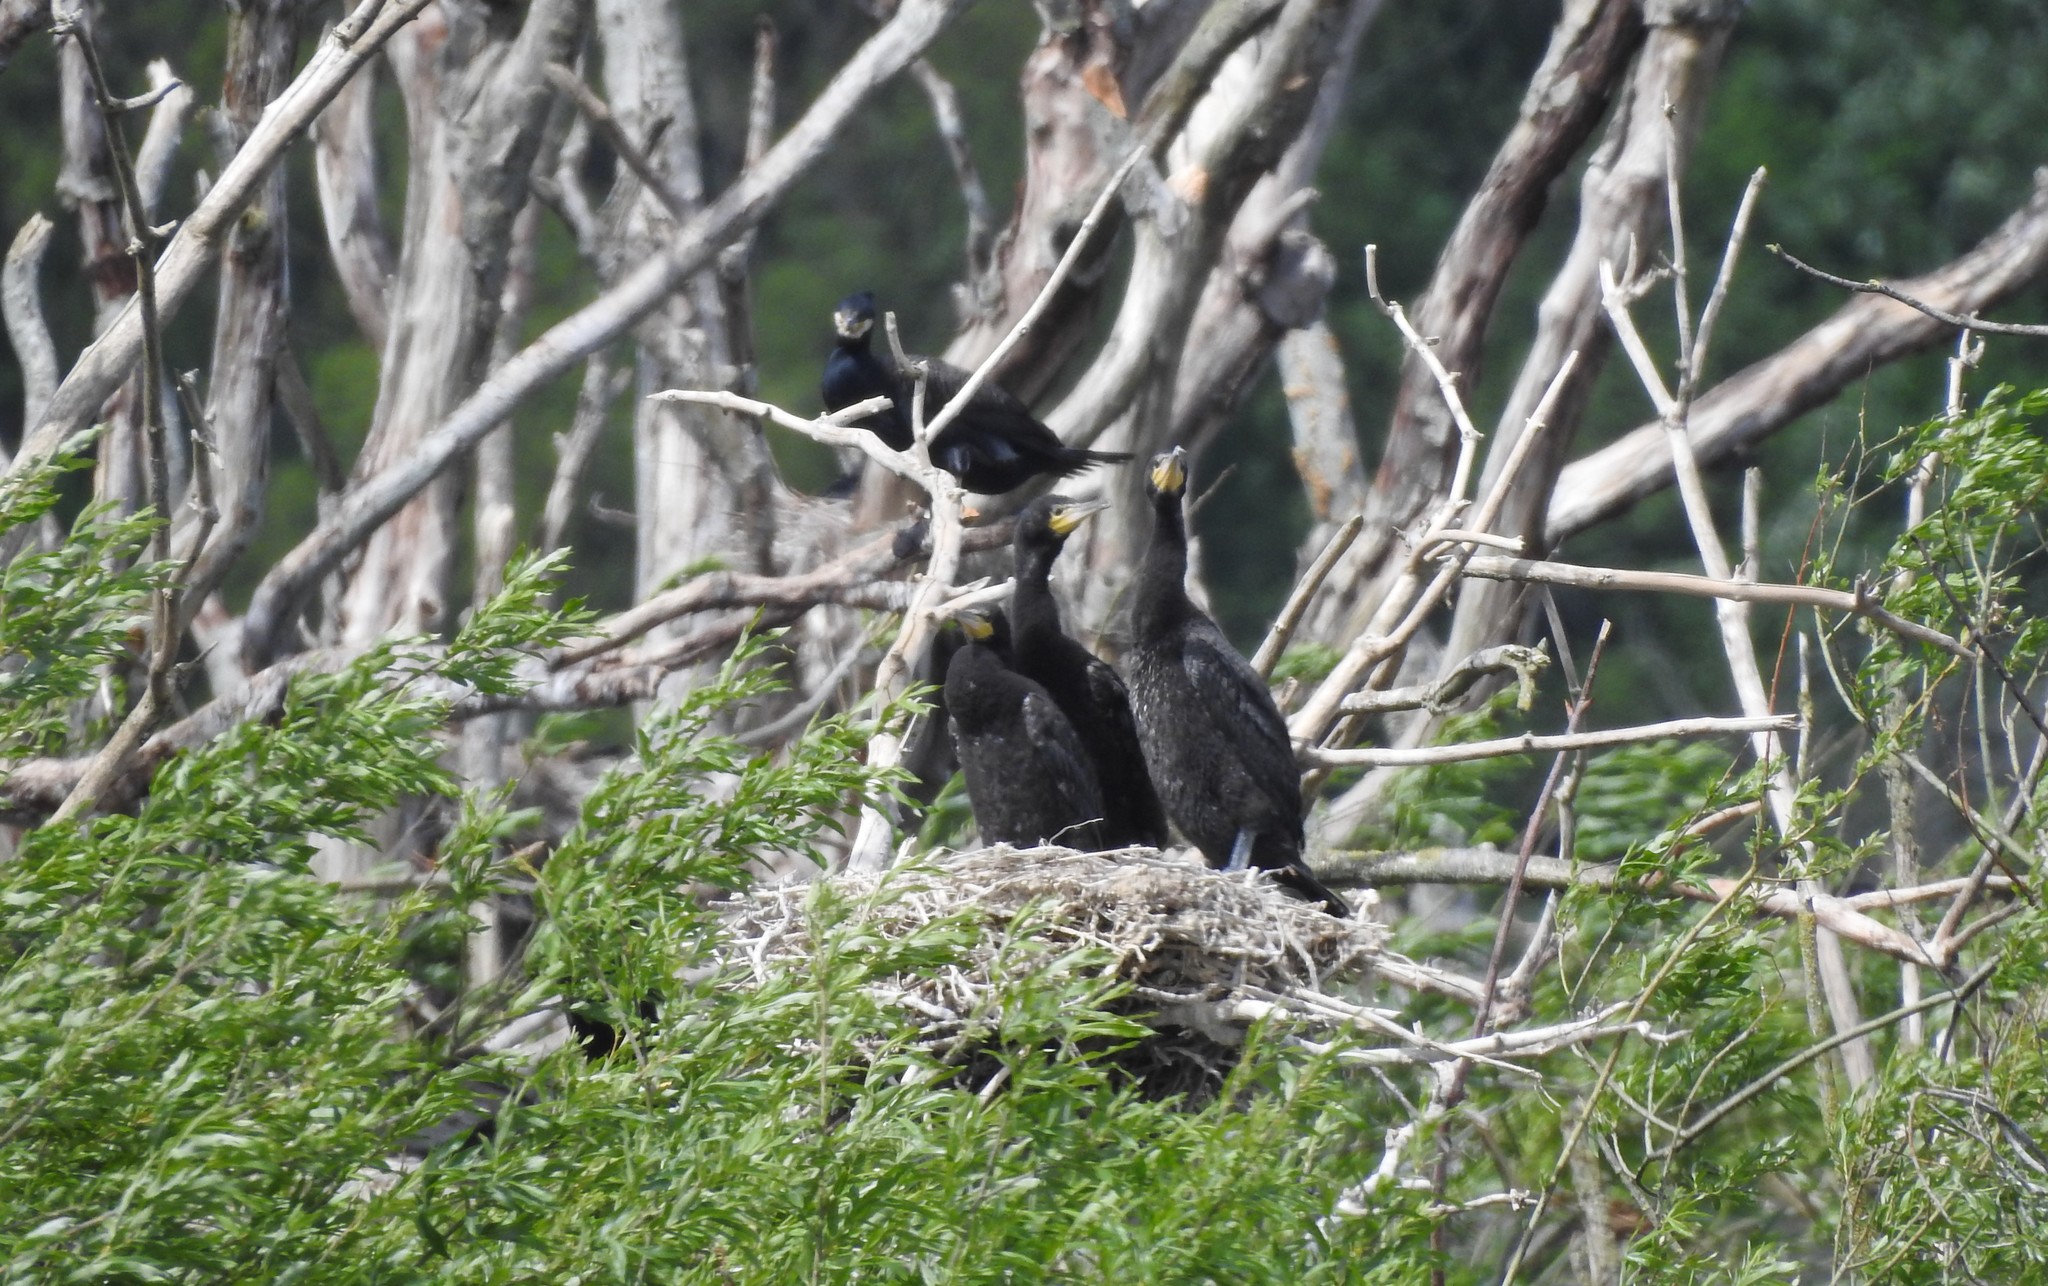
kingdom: Animalia
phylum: Chordata
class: Aves
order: Suliformes
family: Phalacrocoracidae
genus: Phalacrocorax
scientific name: Phalacrocorax carbo
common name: Great cormorant
